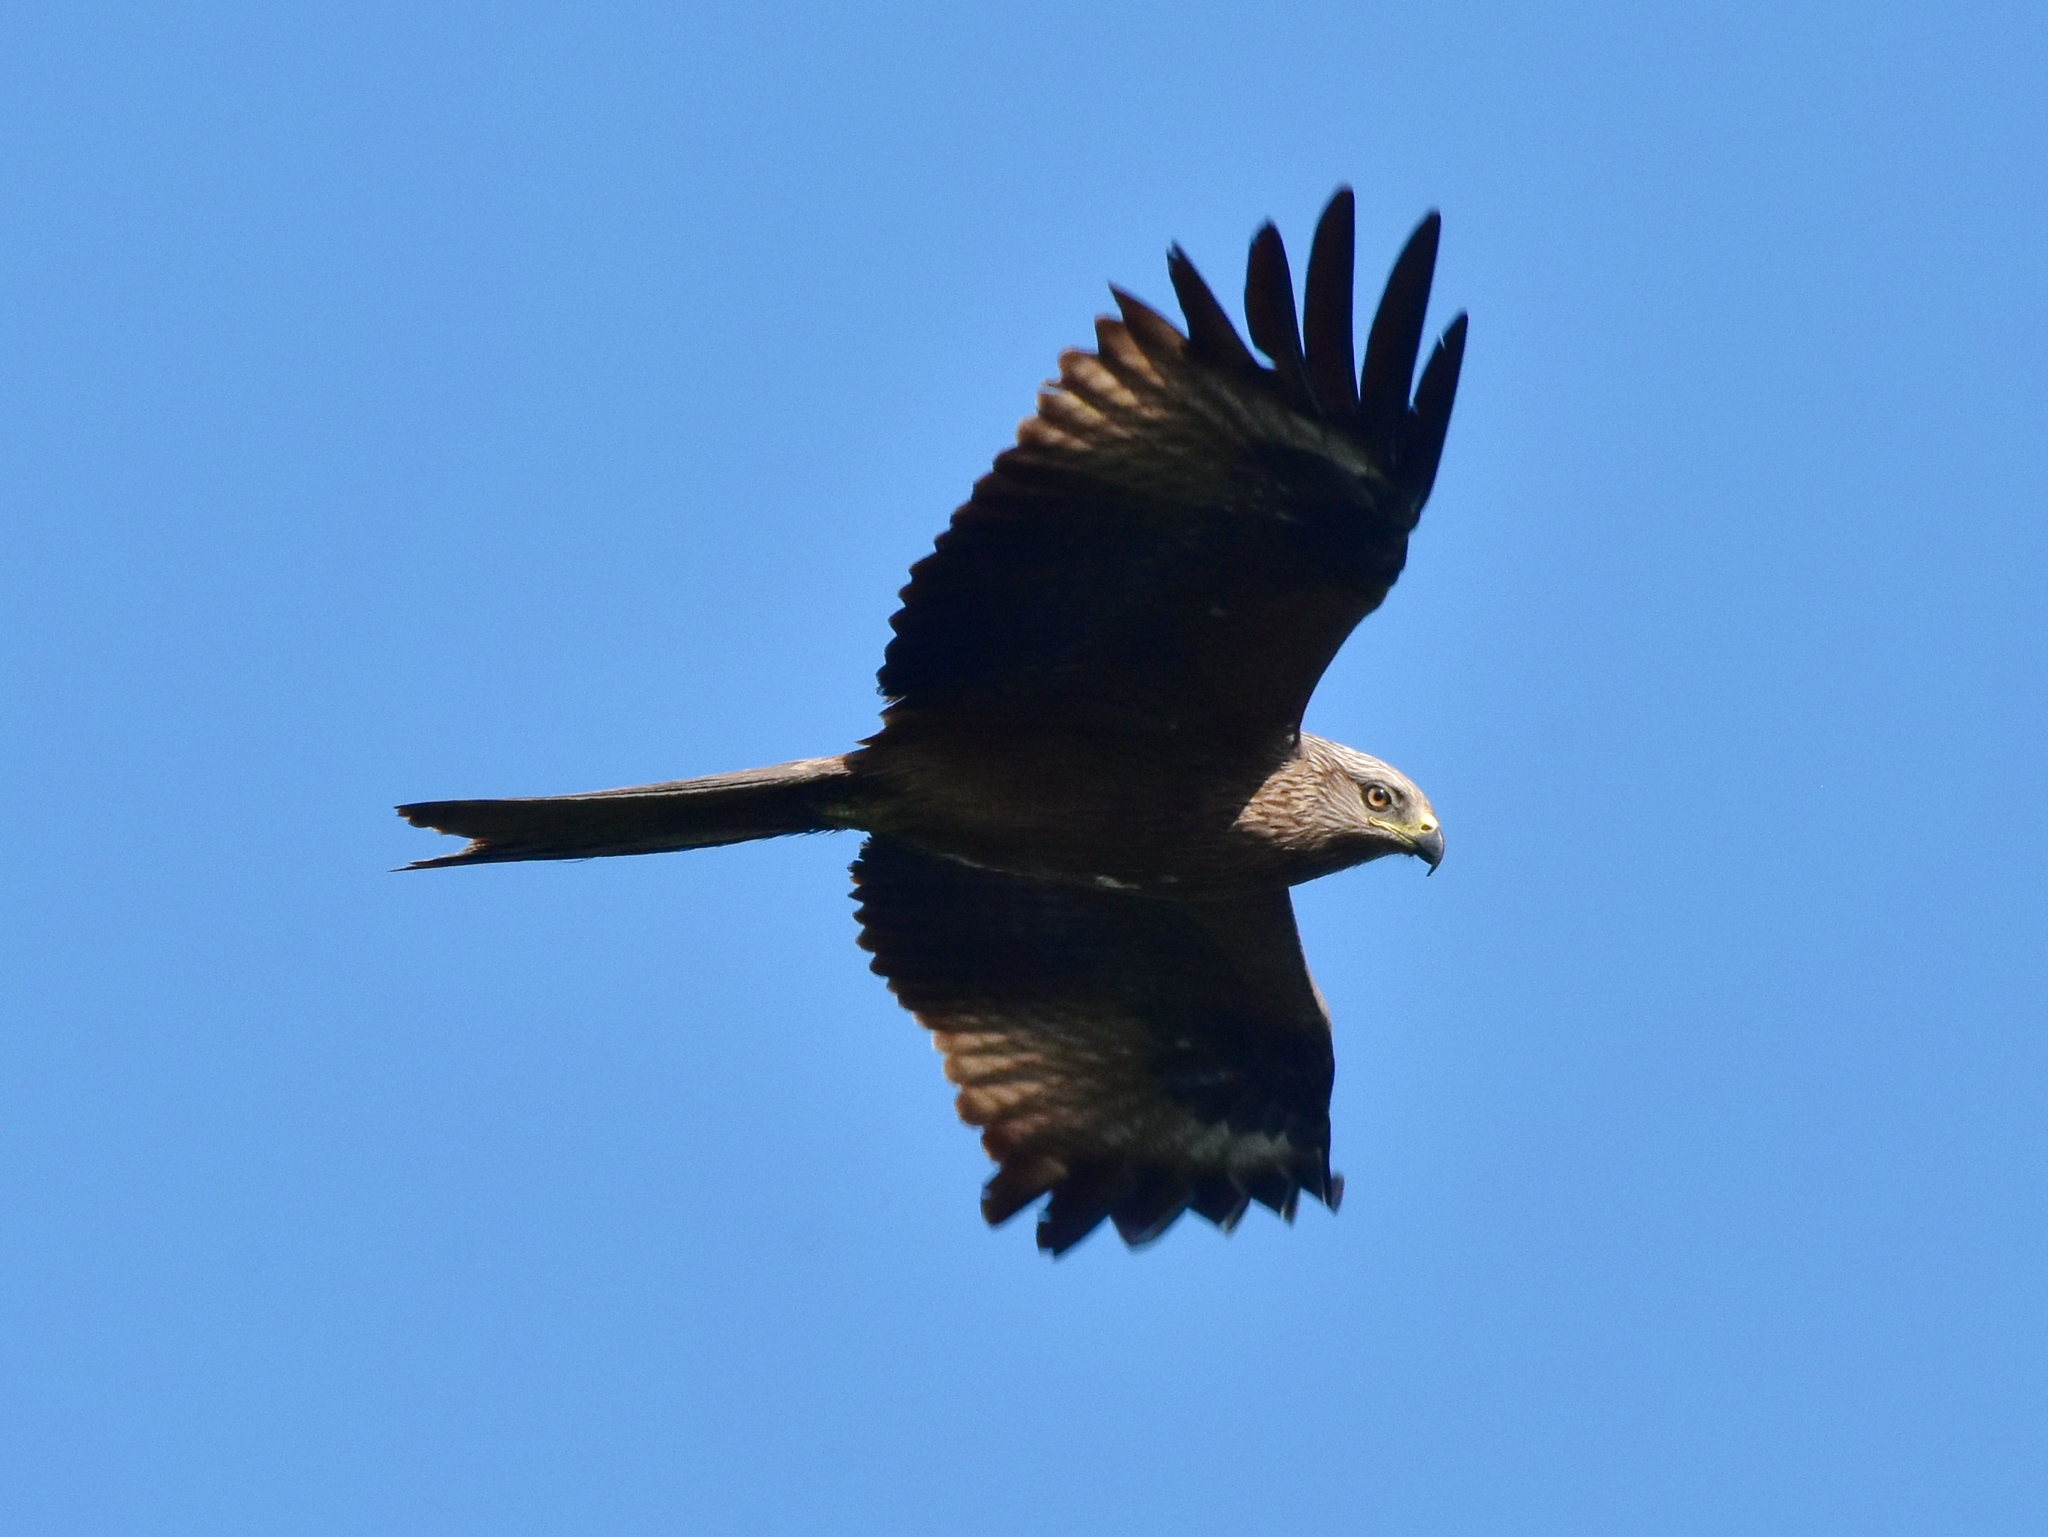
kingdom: Animalia
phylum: Chordata
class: Aves
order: Accipitriformes
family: Accipitridae
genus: Milvus
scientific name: Milvus migrans
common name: Black kite
